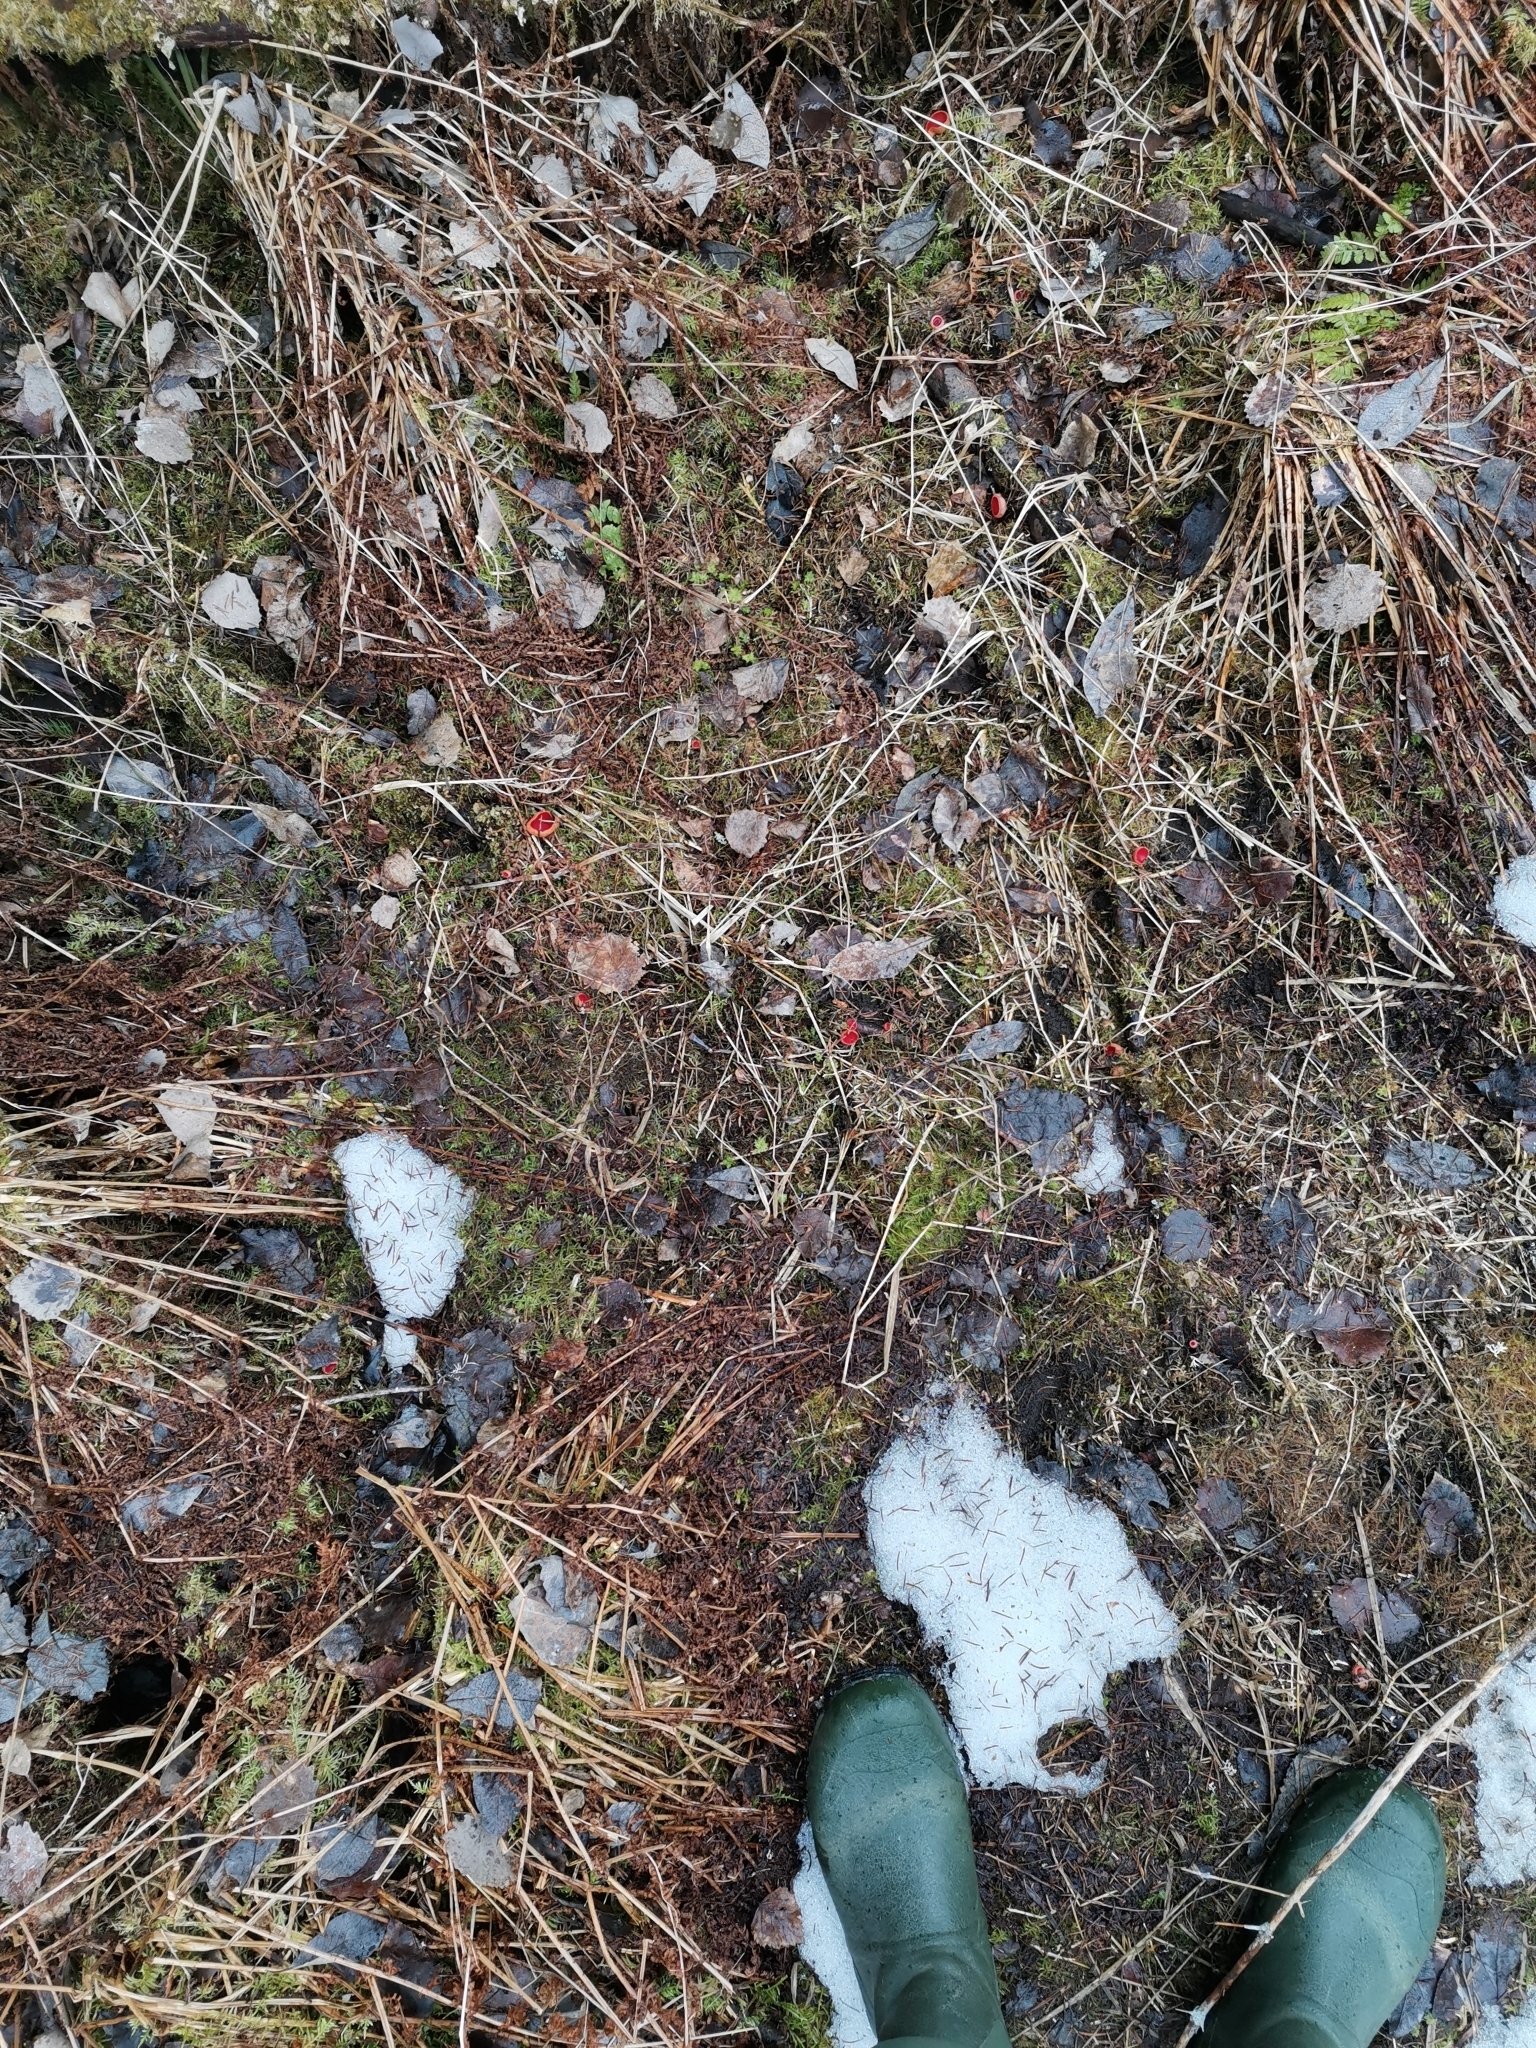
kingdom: Fungi
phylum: Ascomycota
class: Pezizomycetes
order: Pezizales
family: Sarcoscyphaceae
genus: Sarcoscypha
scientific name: Sarcoscypha austriaca
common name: Scarlet elfcup
